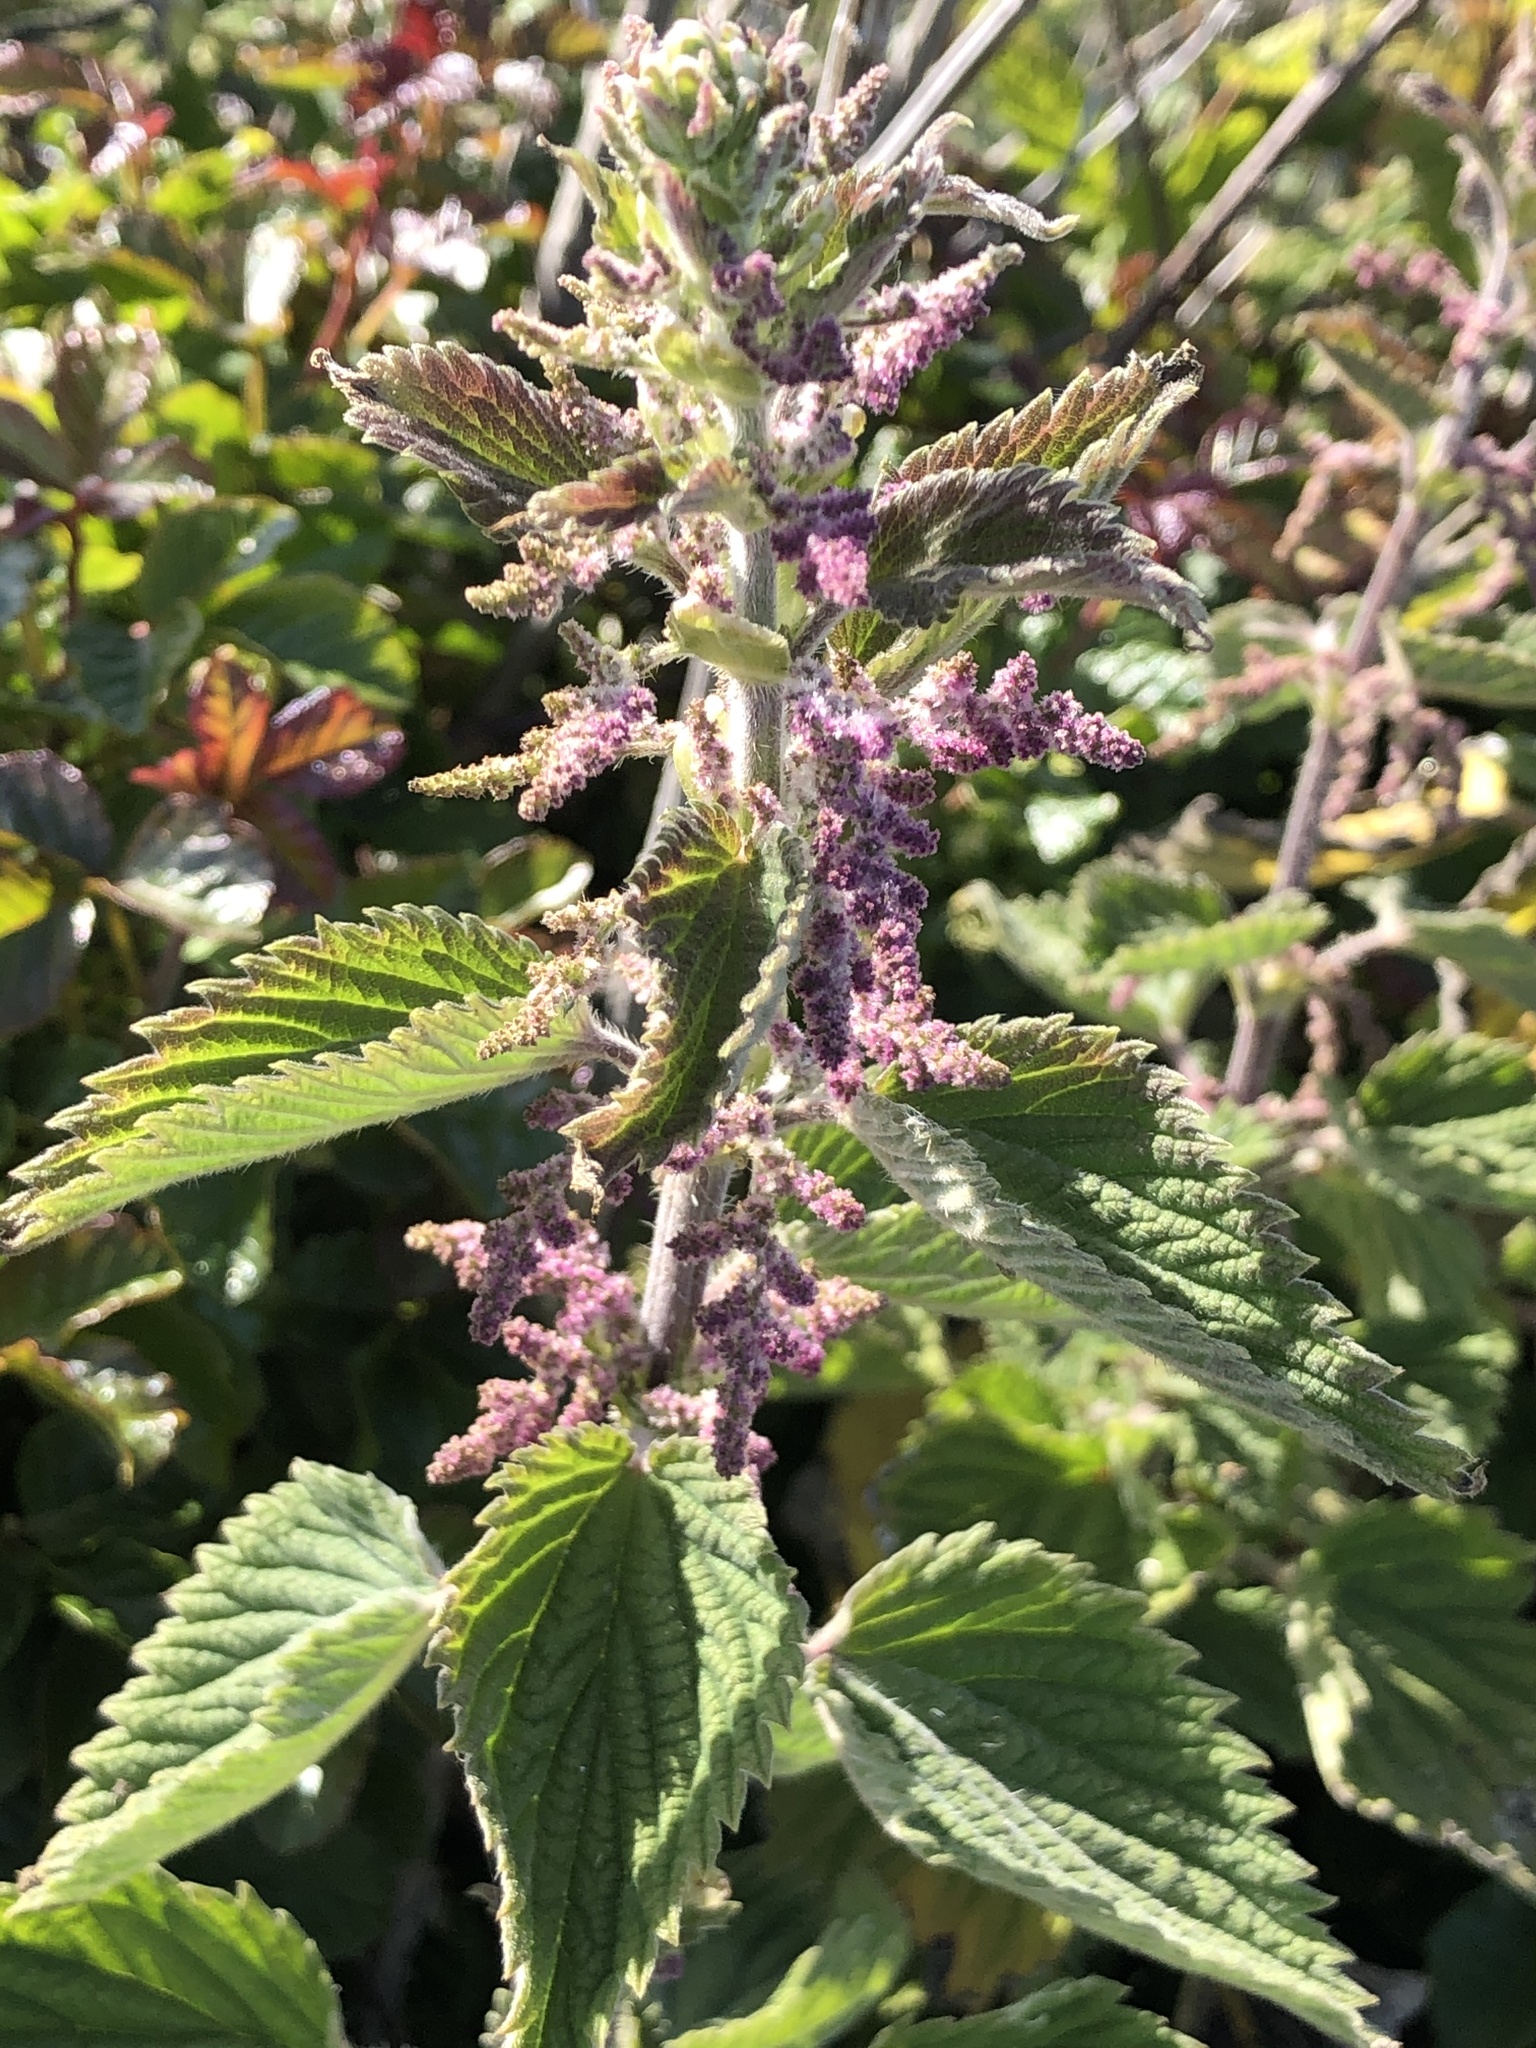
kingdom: Plantae
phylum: Tracheophyta
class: Magnoliopsida
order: Rosales
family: Urticaceae
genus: Urtica
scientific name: Urtica dioica
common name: Common nettle
